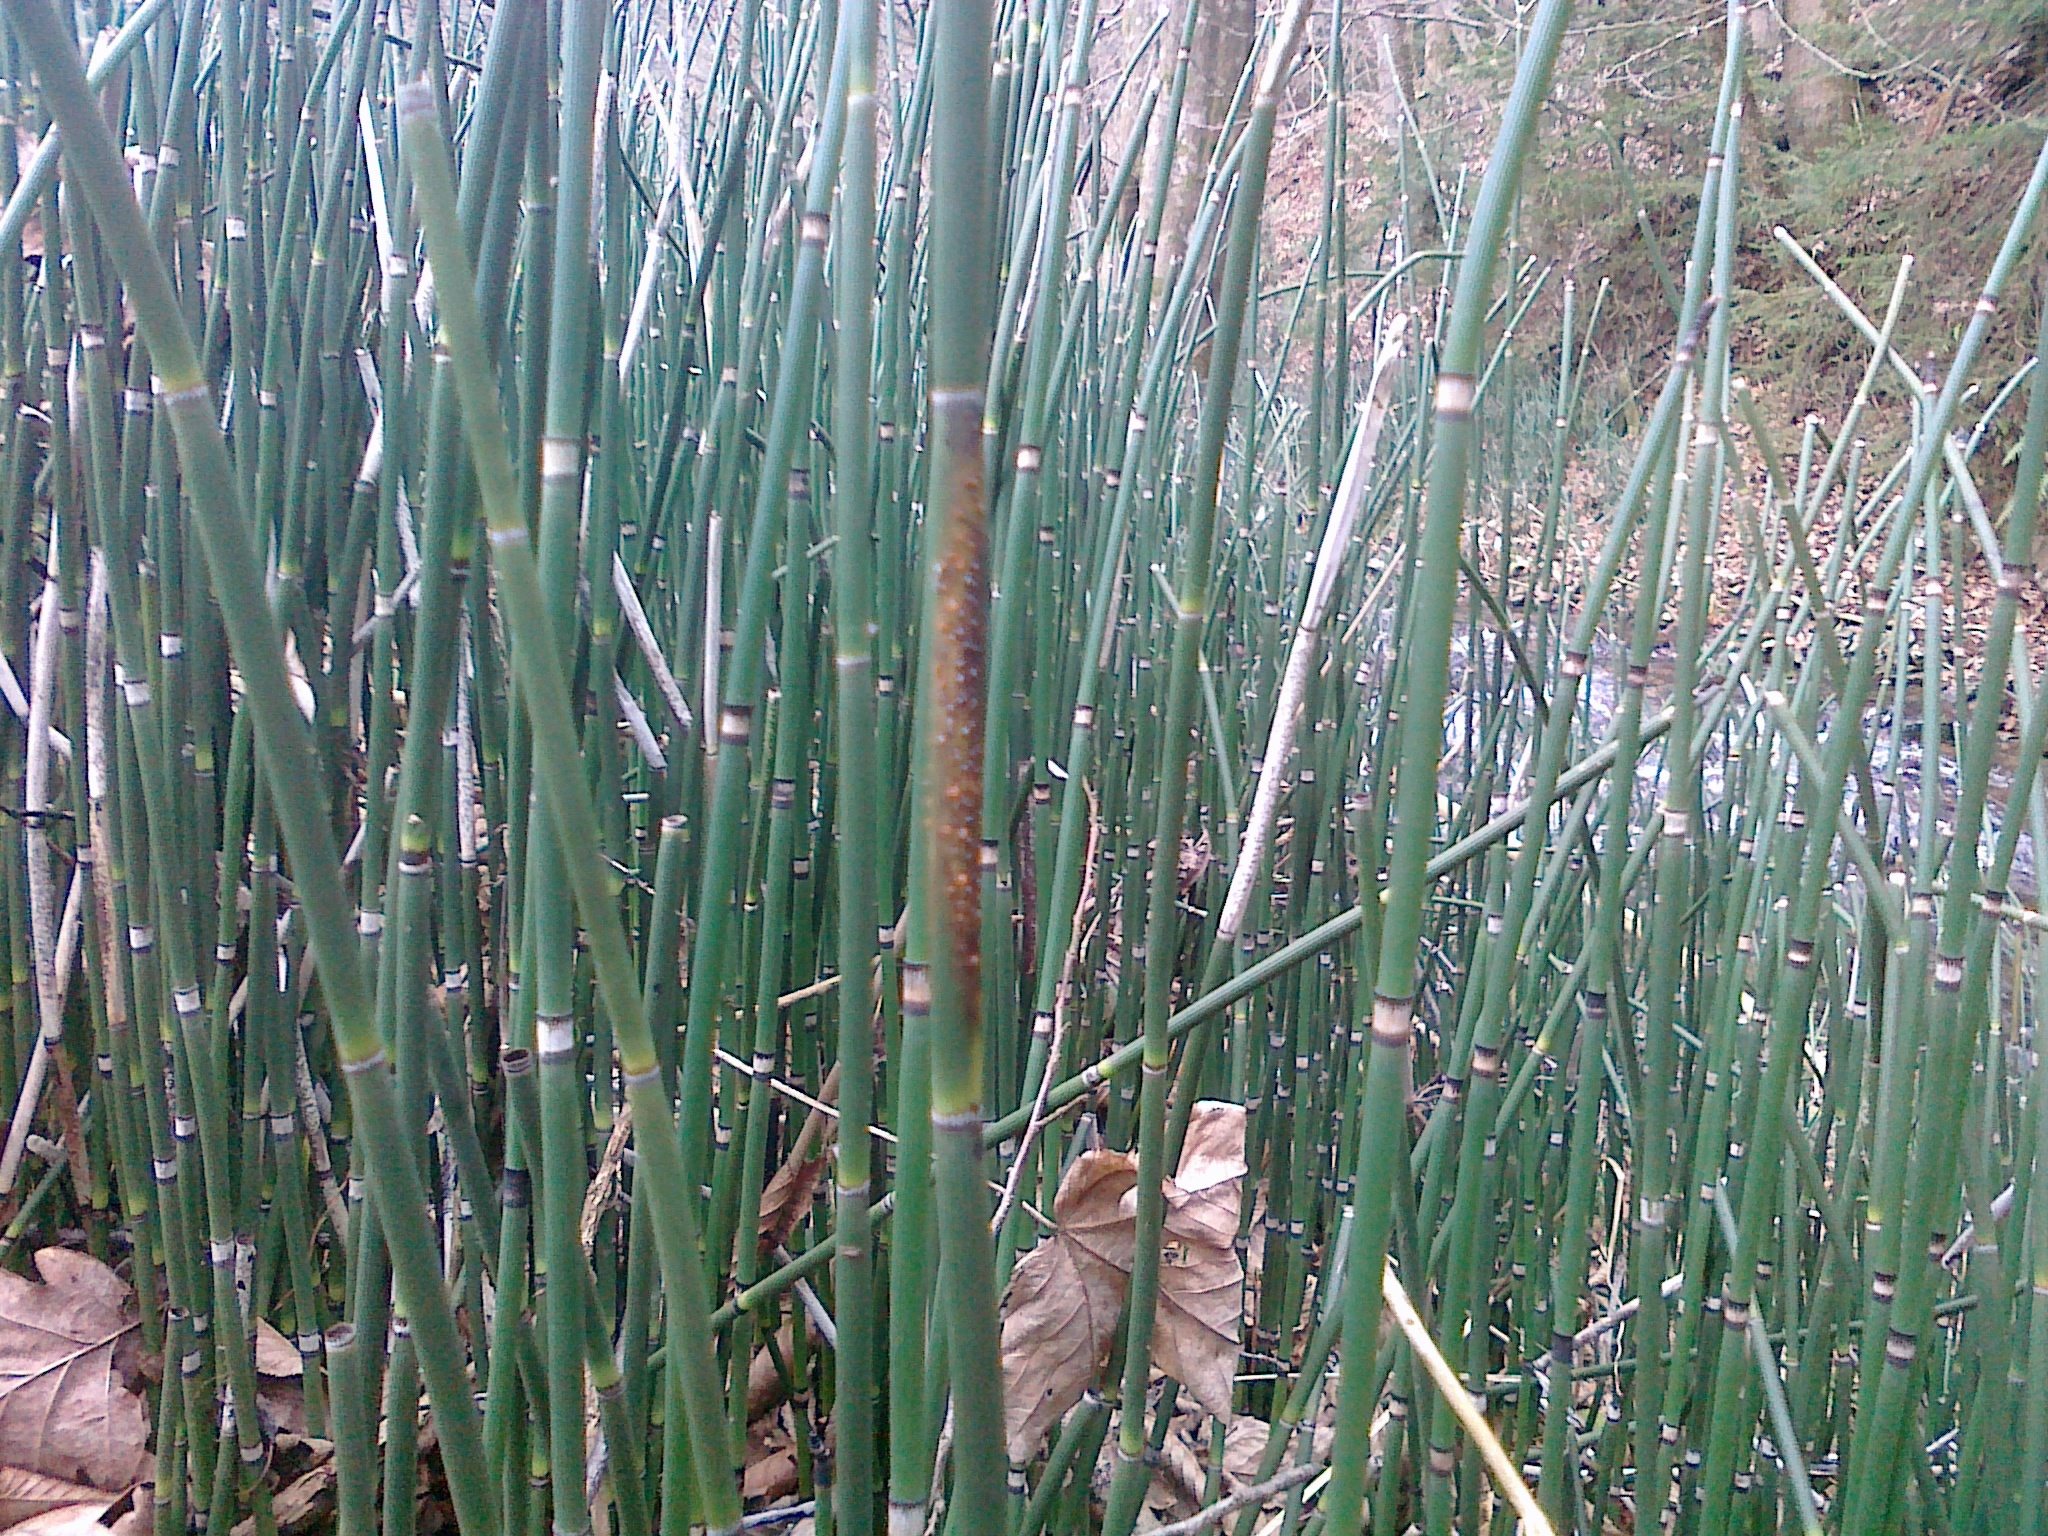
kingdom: Fungi
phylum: Ascomycota
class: Leotiomycetes
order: Helotiales
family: Helotiaceae
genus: Stamnaria
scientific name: Stamnaria americana
